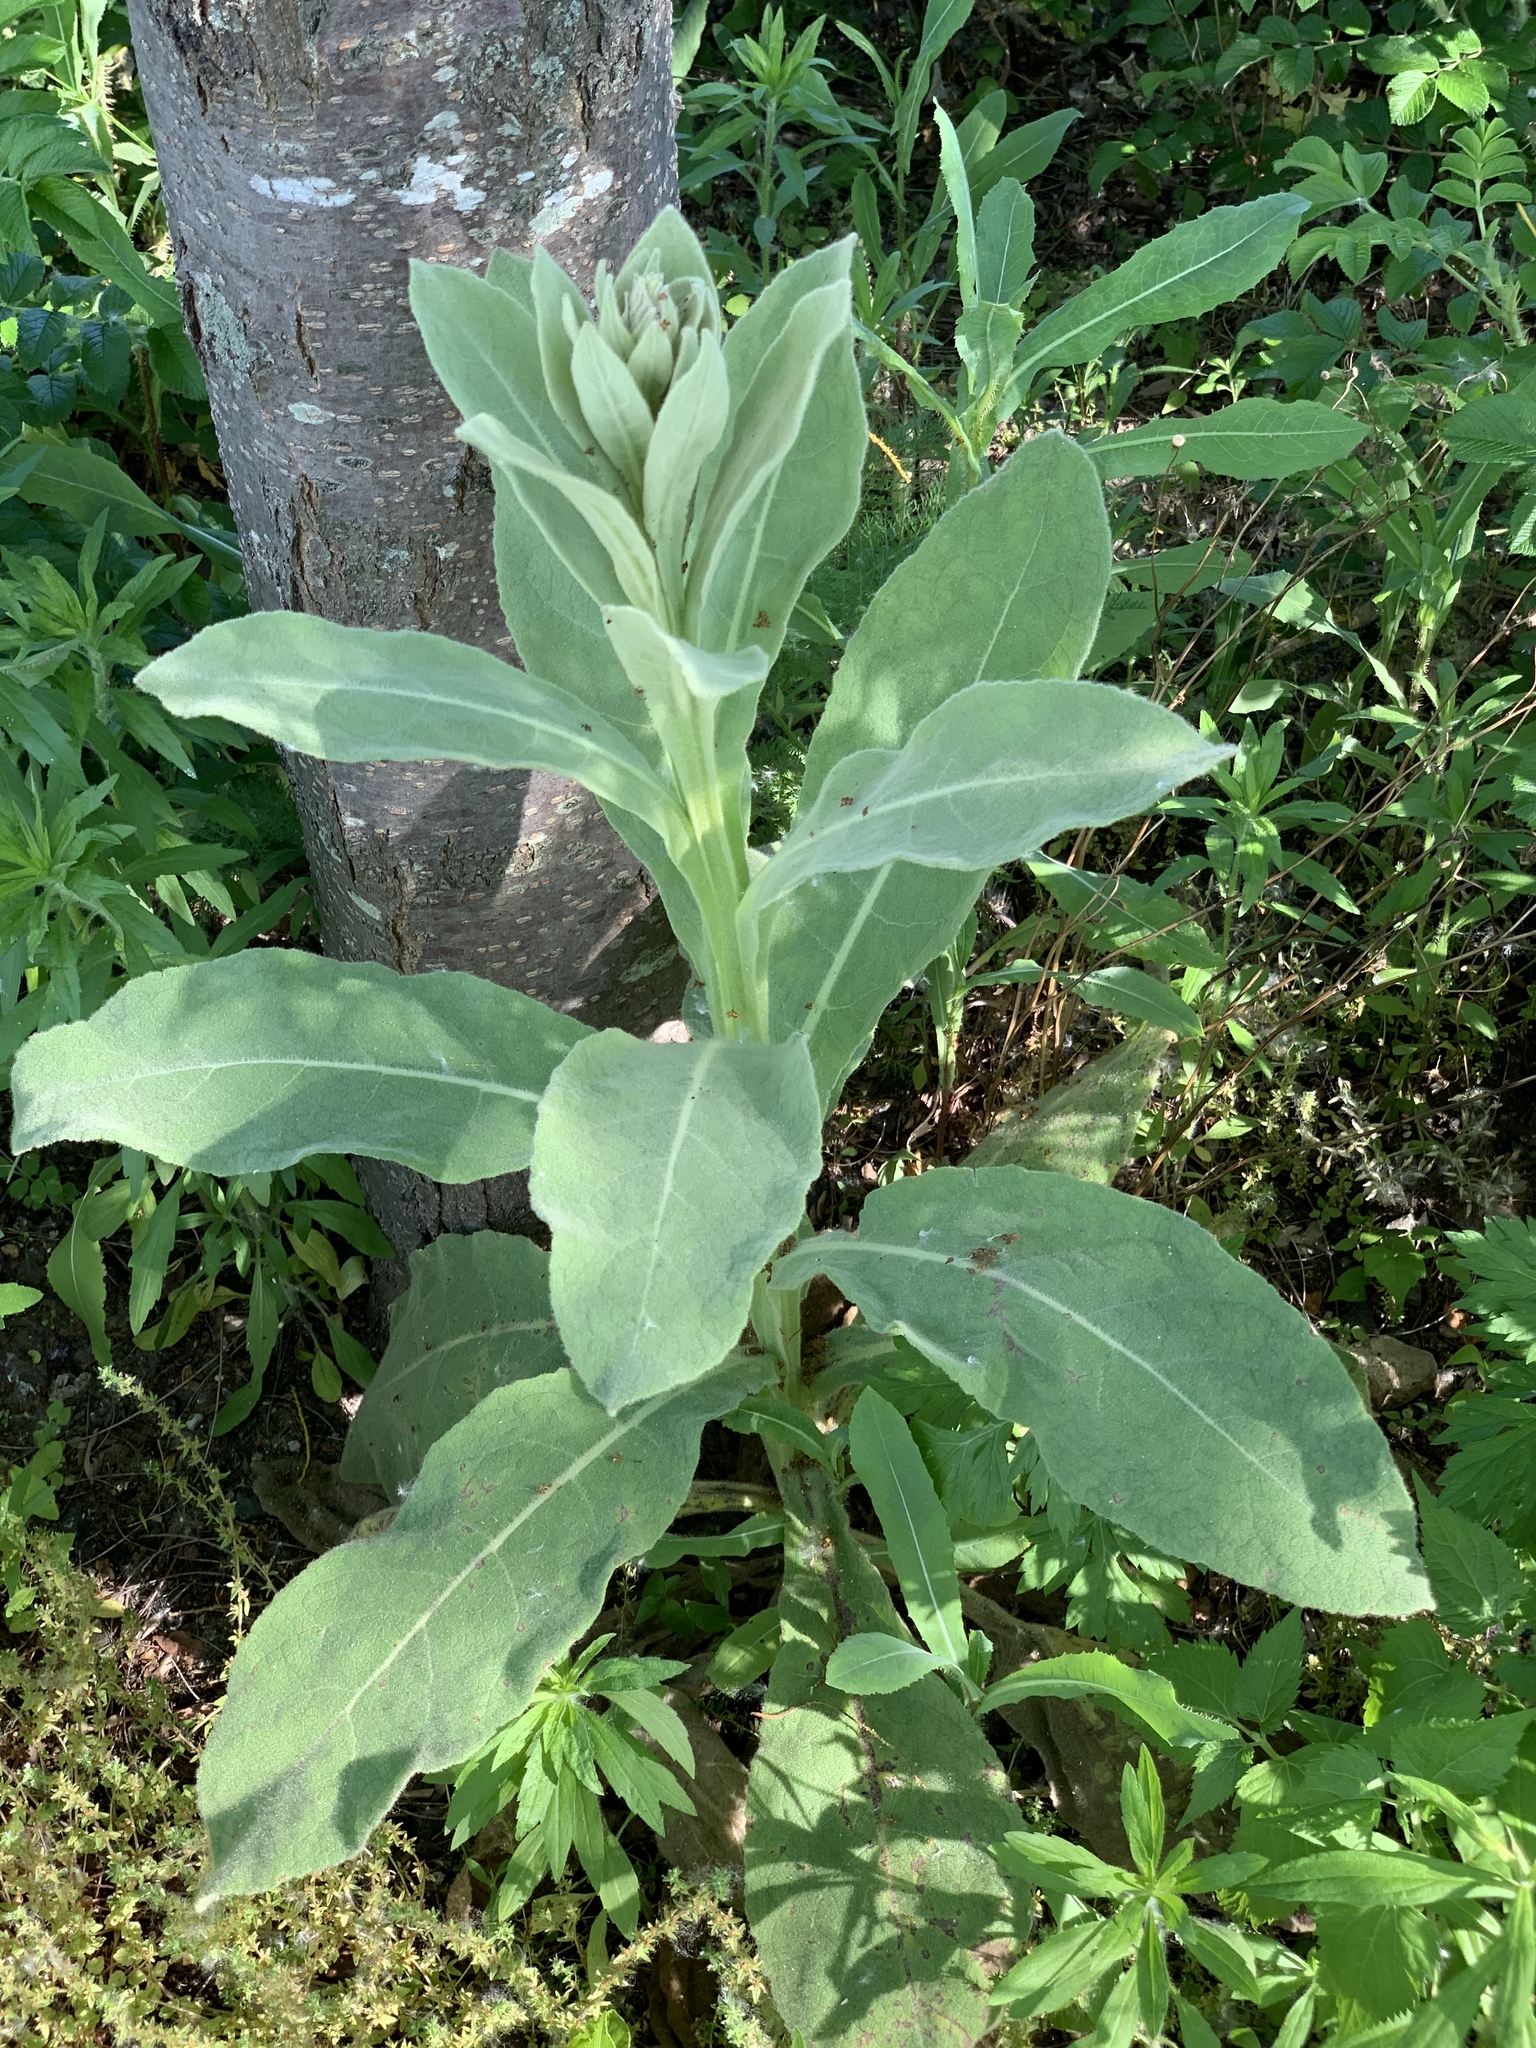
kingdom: Plantae
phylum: Tracheophyta
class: Magnoliopsida
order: Lamiales
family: Scrophulariaceae
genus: Verbascum
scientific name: Verbascum thapsus
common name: Common mullein
